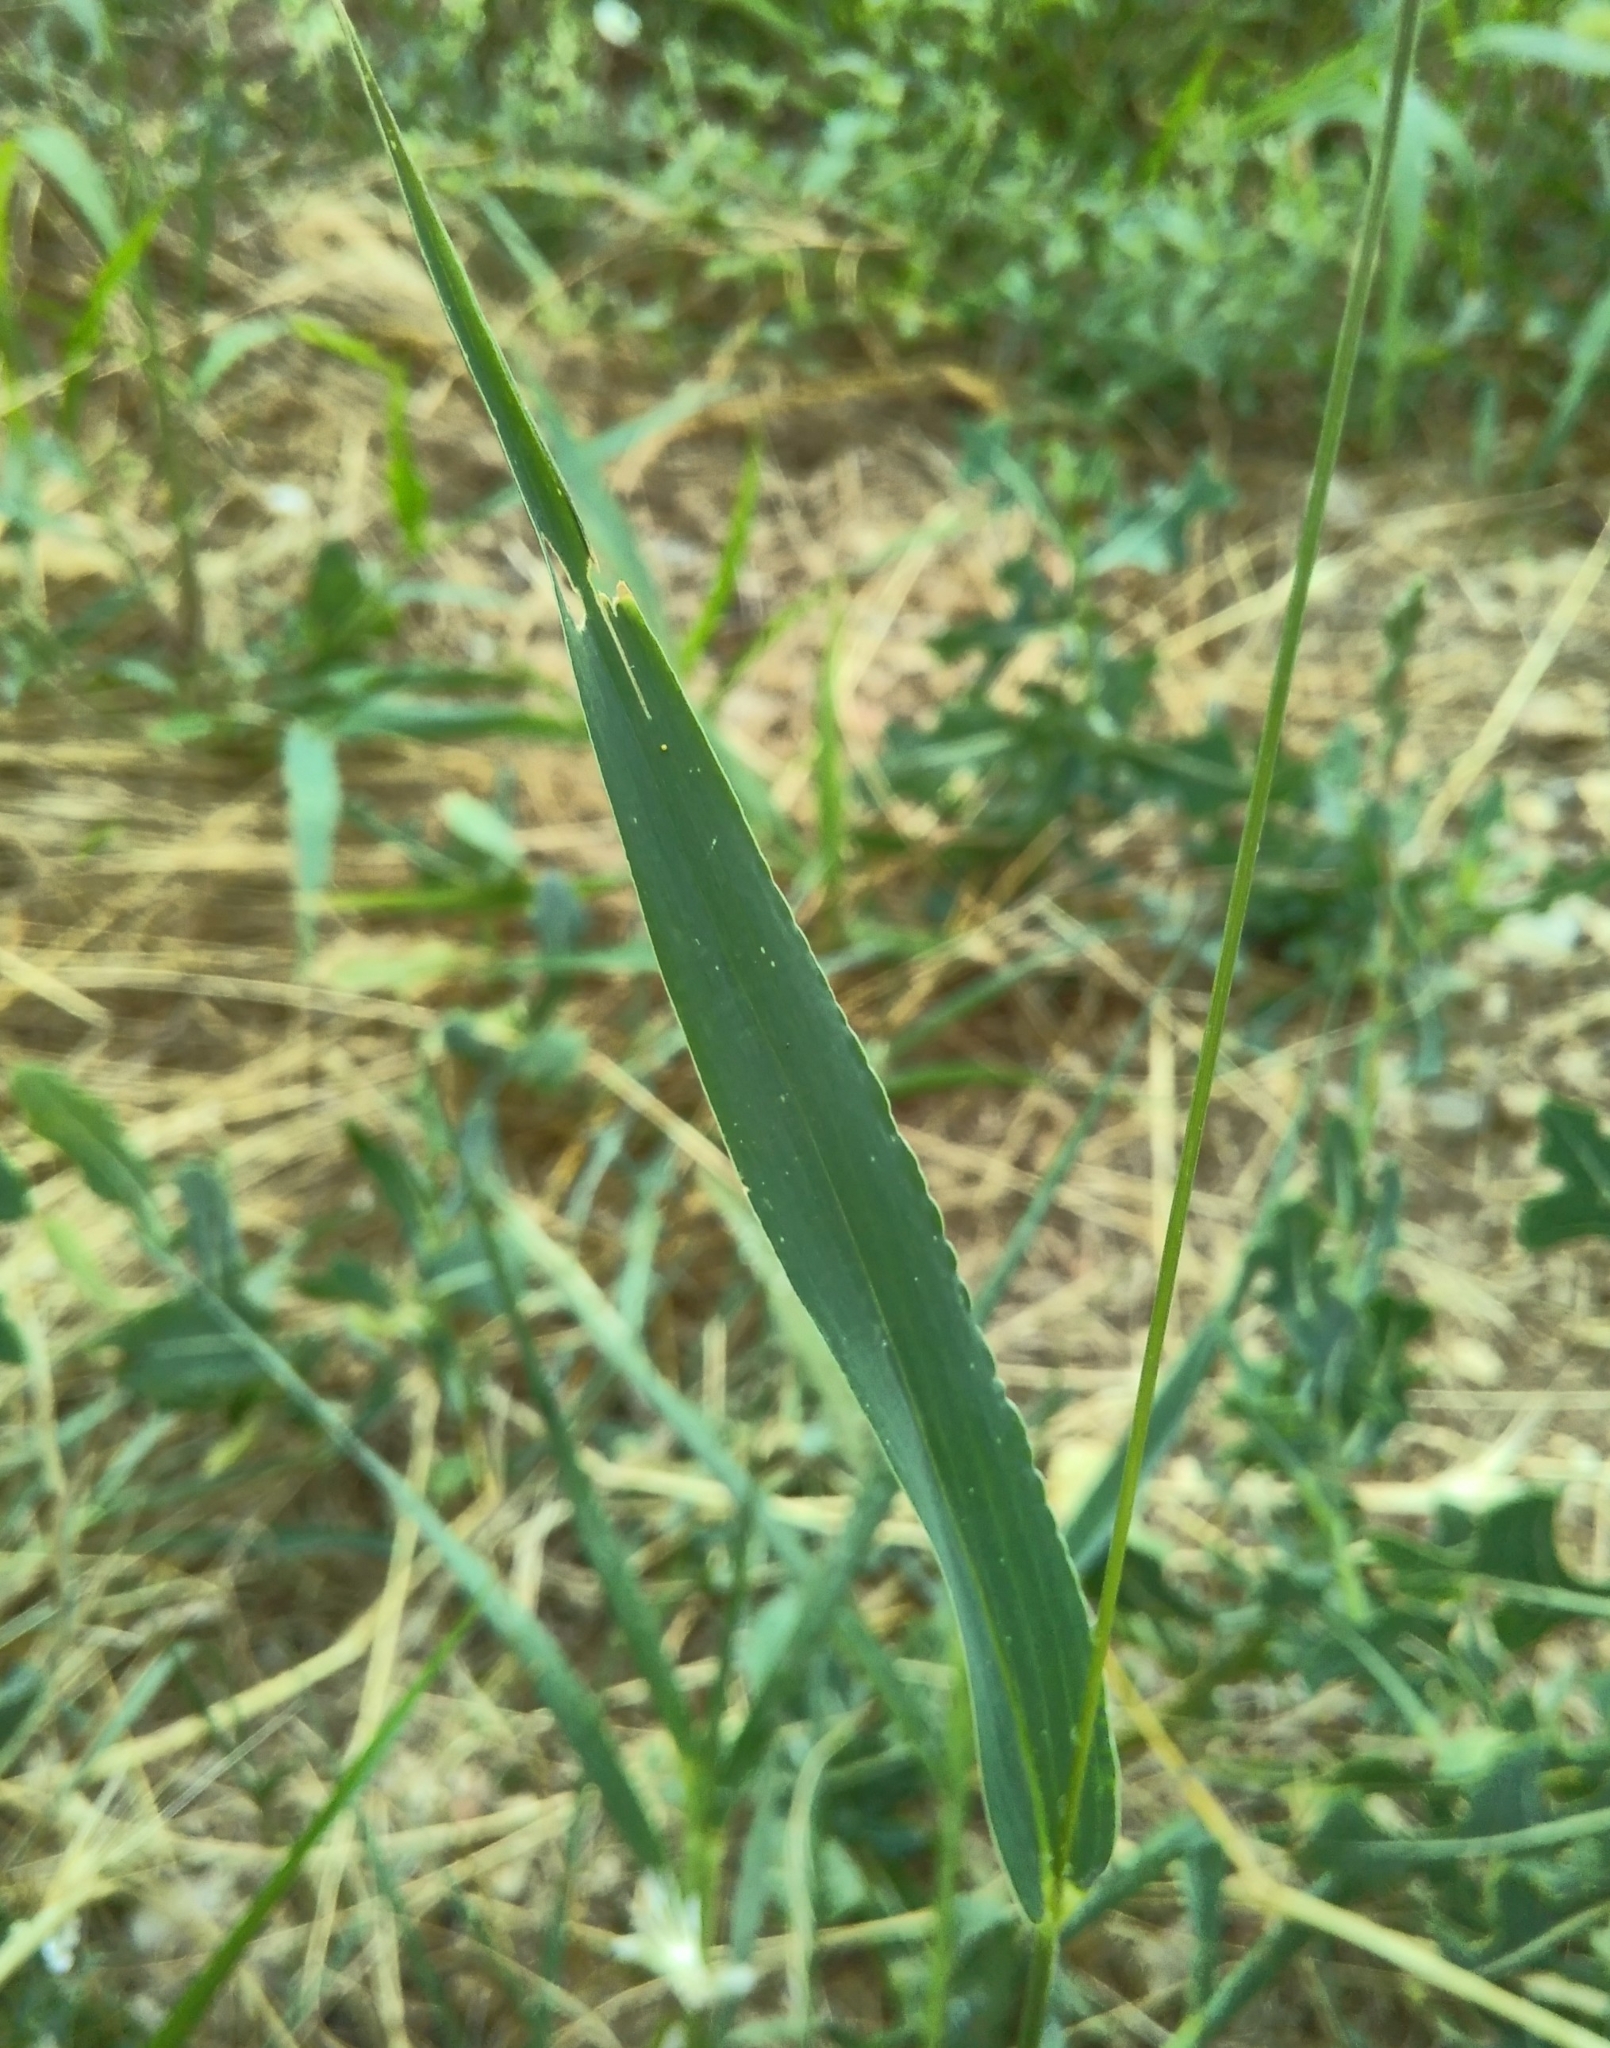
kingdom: Plantae
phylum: Tracheophyta
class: Liliopsida
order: Poales
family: Poaceae
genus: Setaria
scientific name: Setaria viridis
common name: Green bristlegrass
